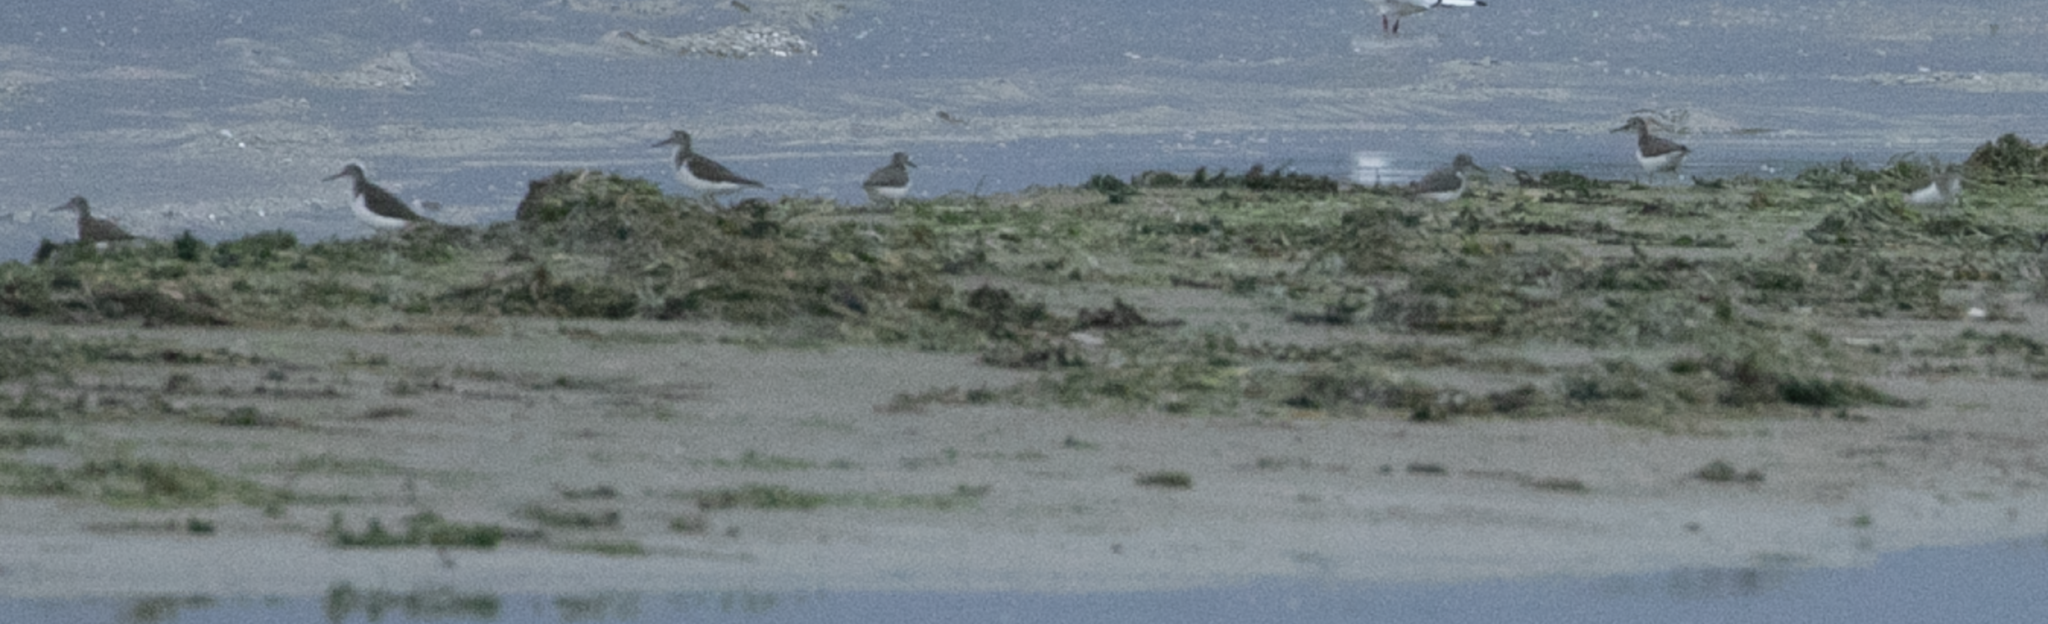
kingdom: Animalia
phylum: Chordata
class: Aves
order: Charadriiformes
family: Scolopacidae
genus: Actitis
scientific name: Actitis hypoleucos
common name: Common sandpiper
